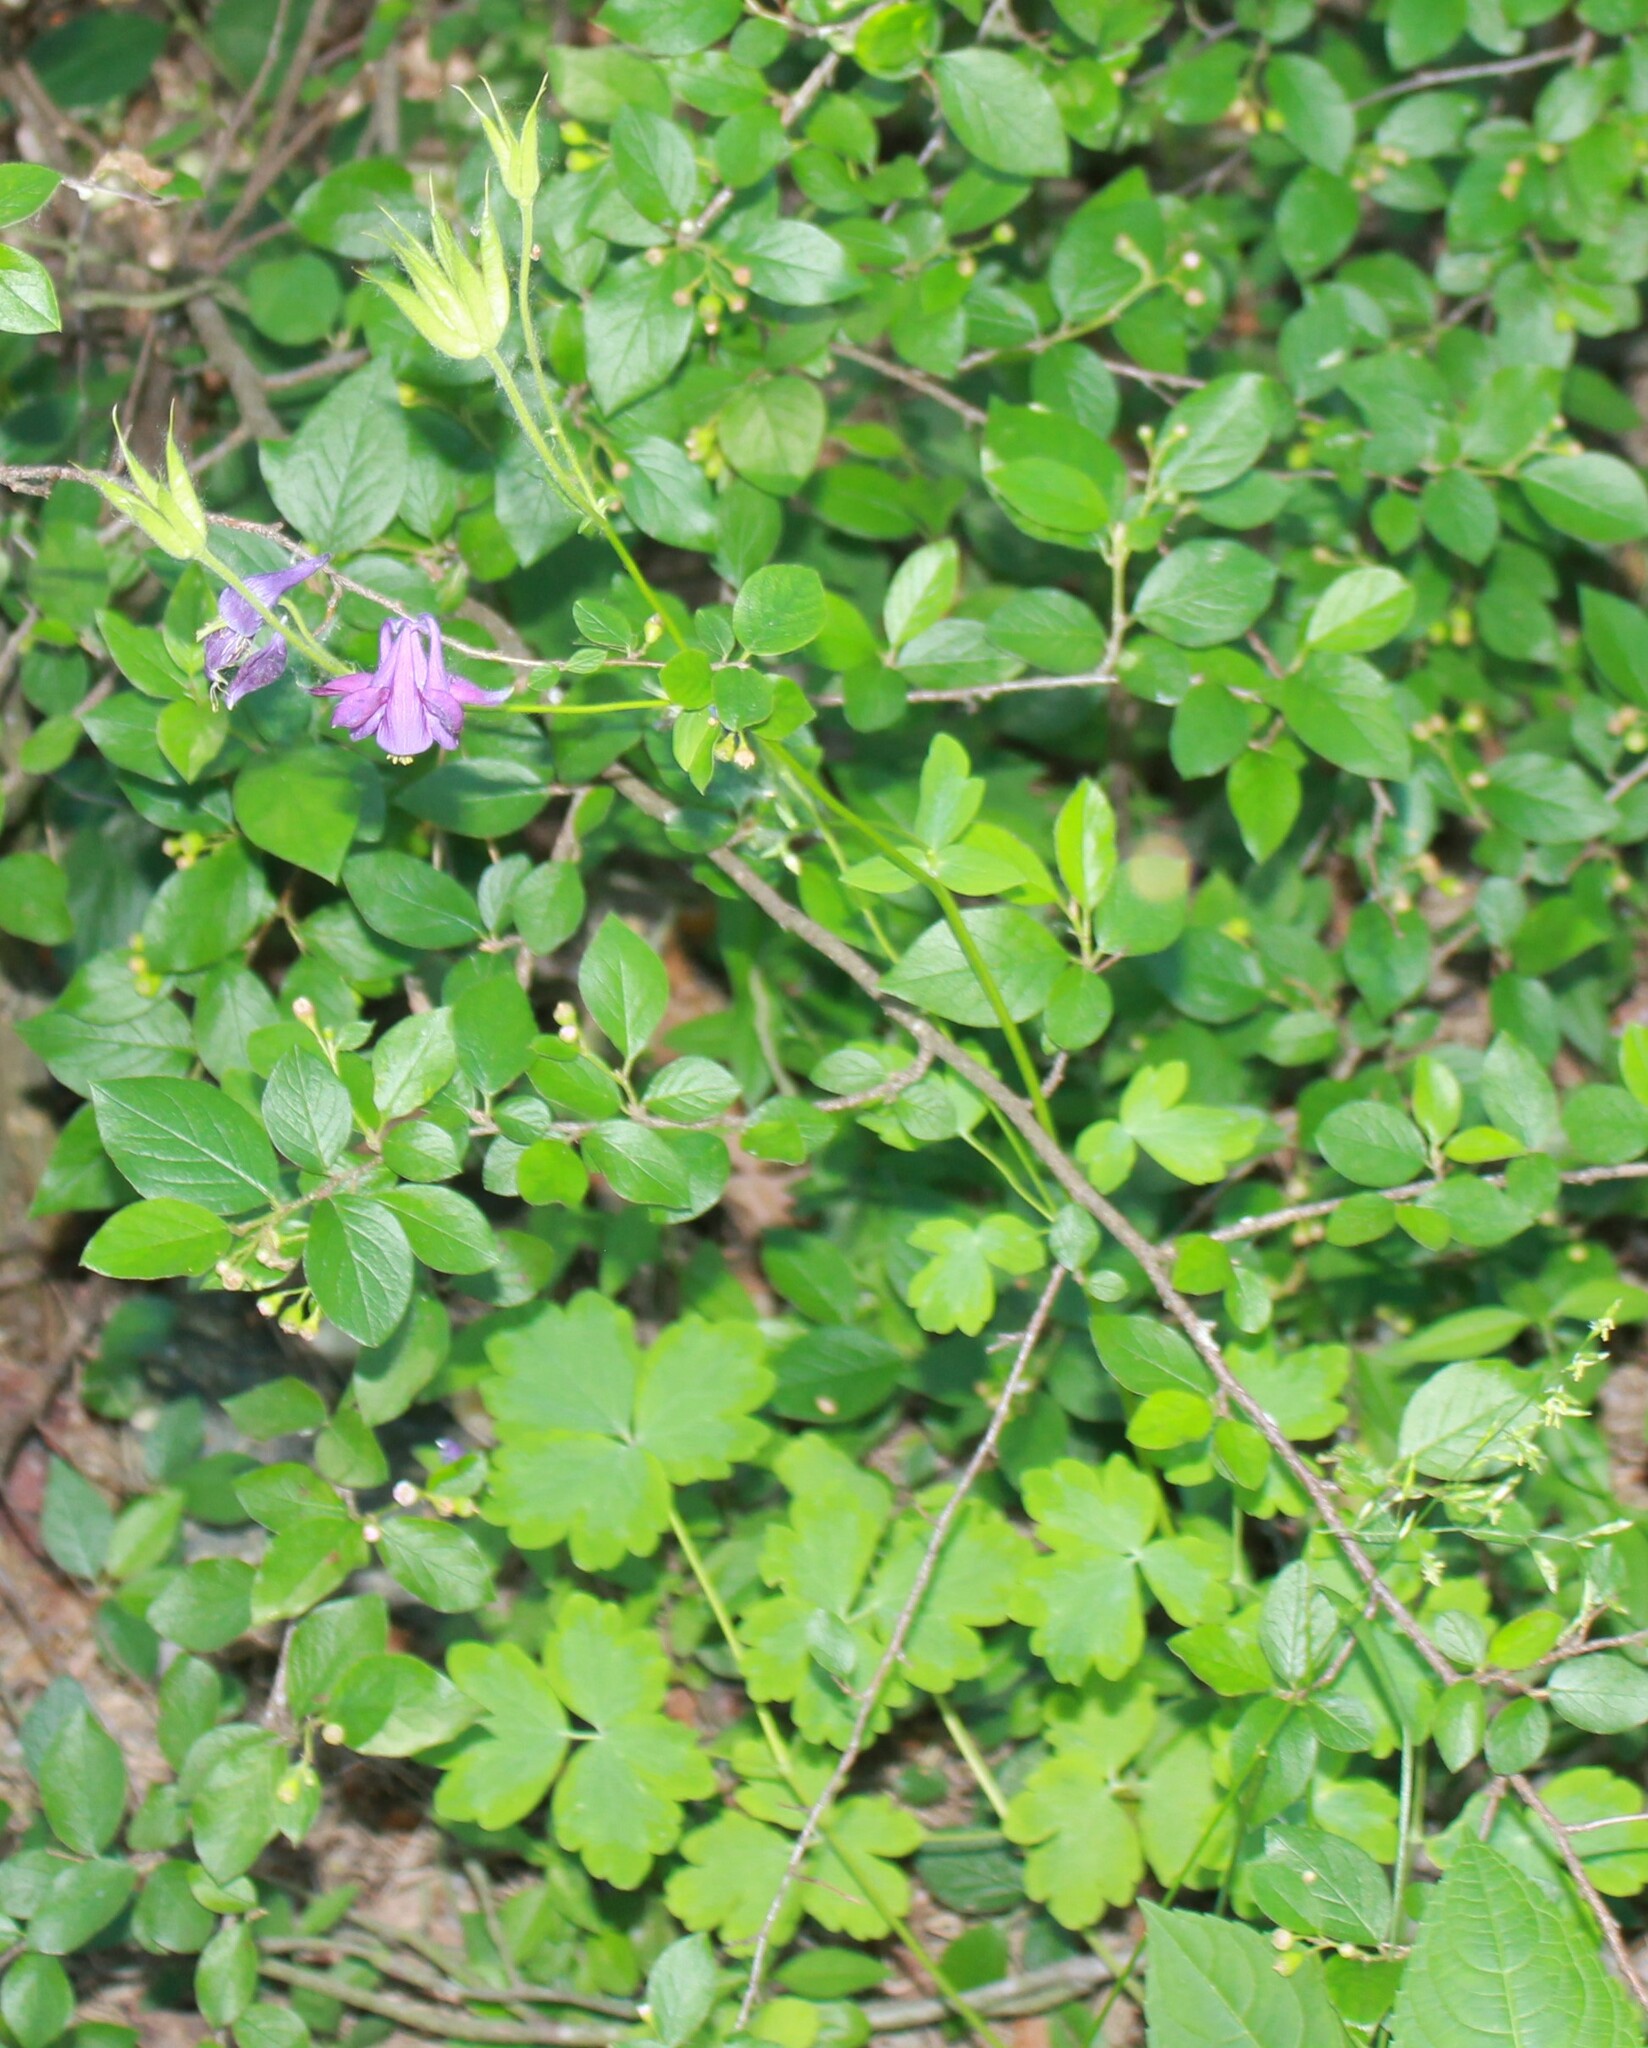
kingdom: Plantae
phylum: Tracheophyta
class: Magnoliopsida
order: Ranunculales
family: Ranunculaceae
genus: Aquilegia
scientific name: Aquilegia vulgaris
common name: Columbine
